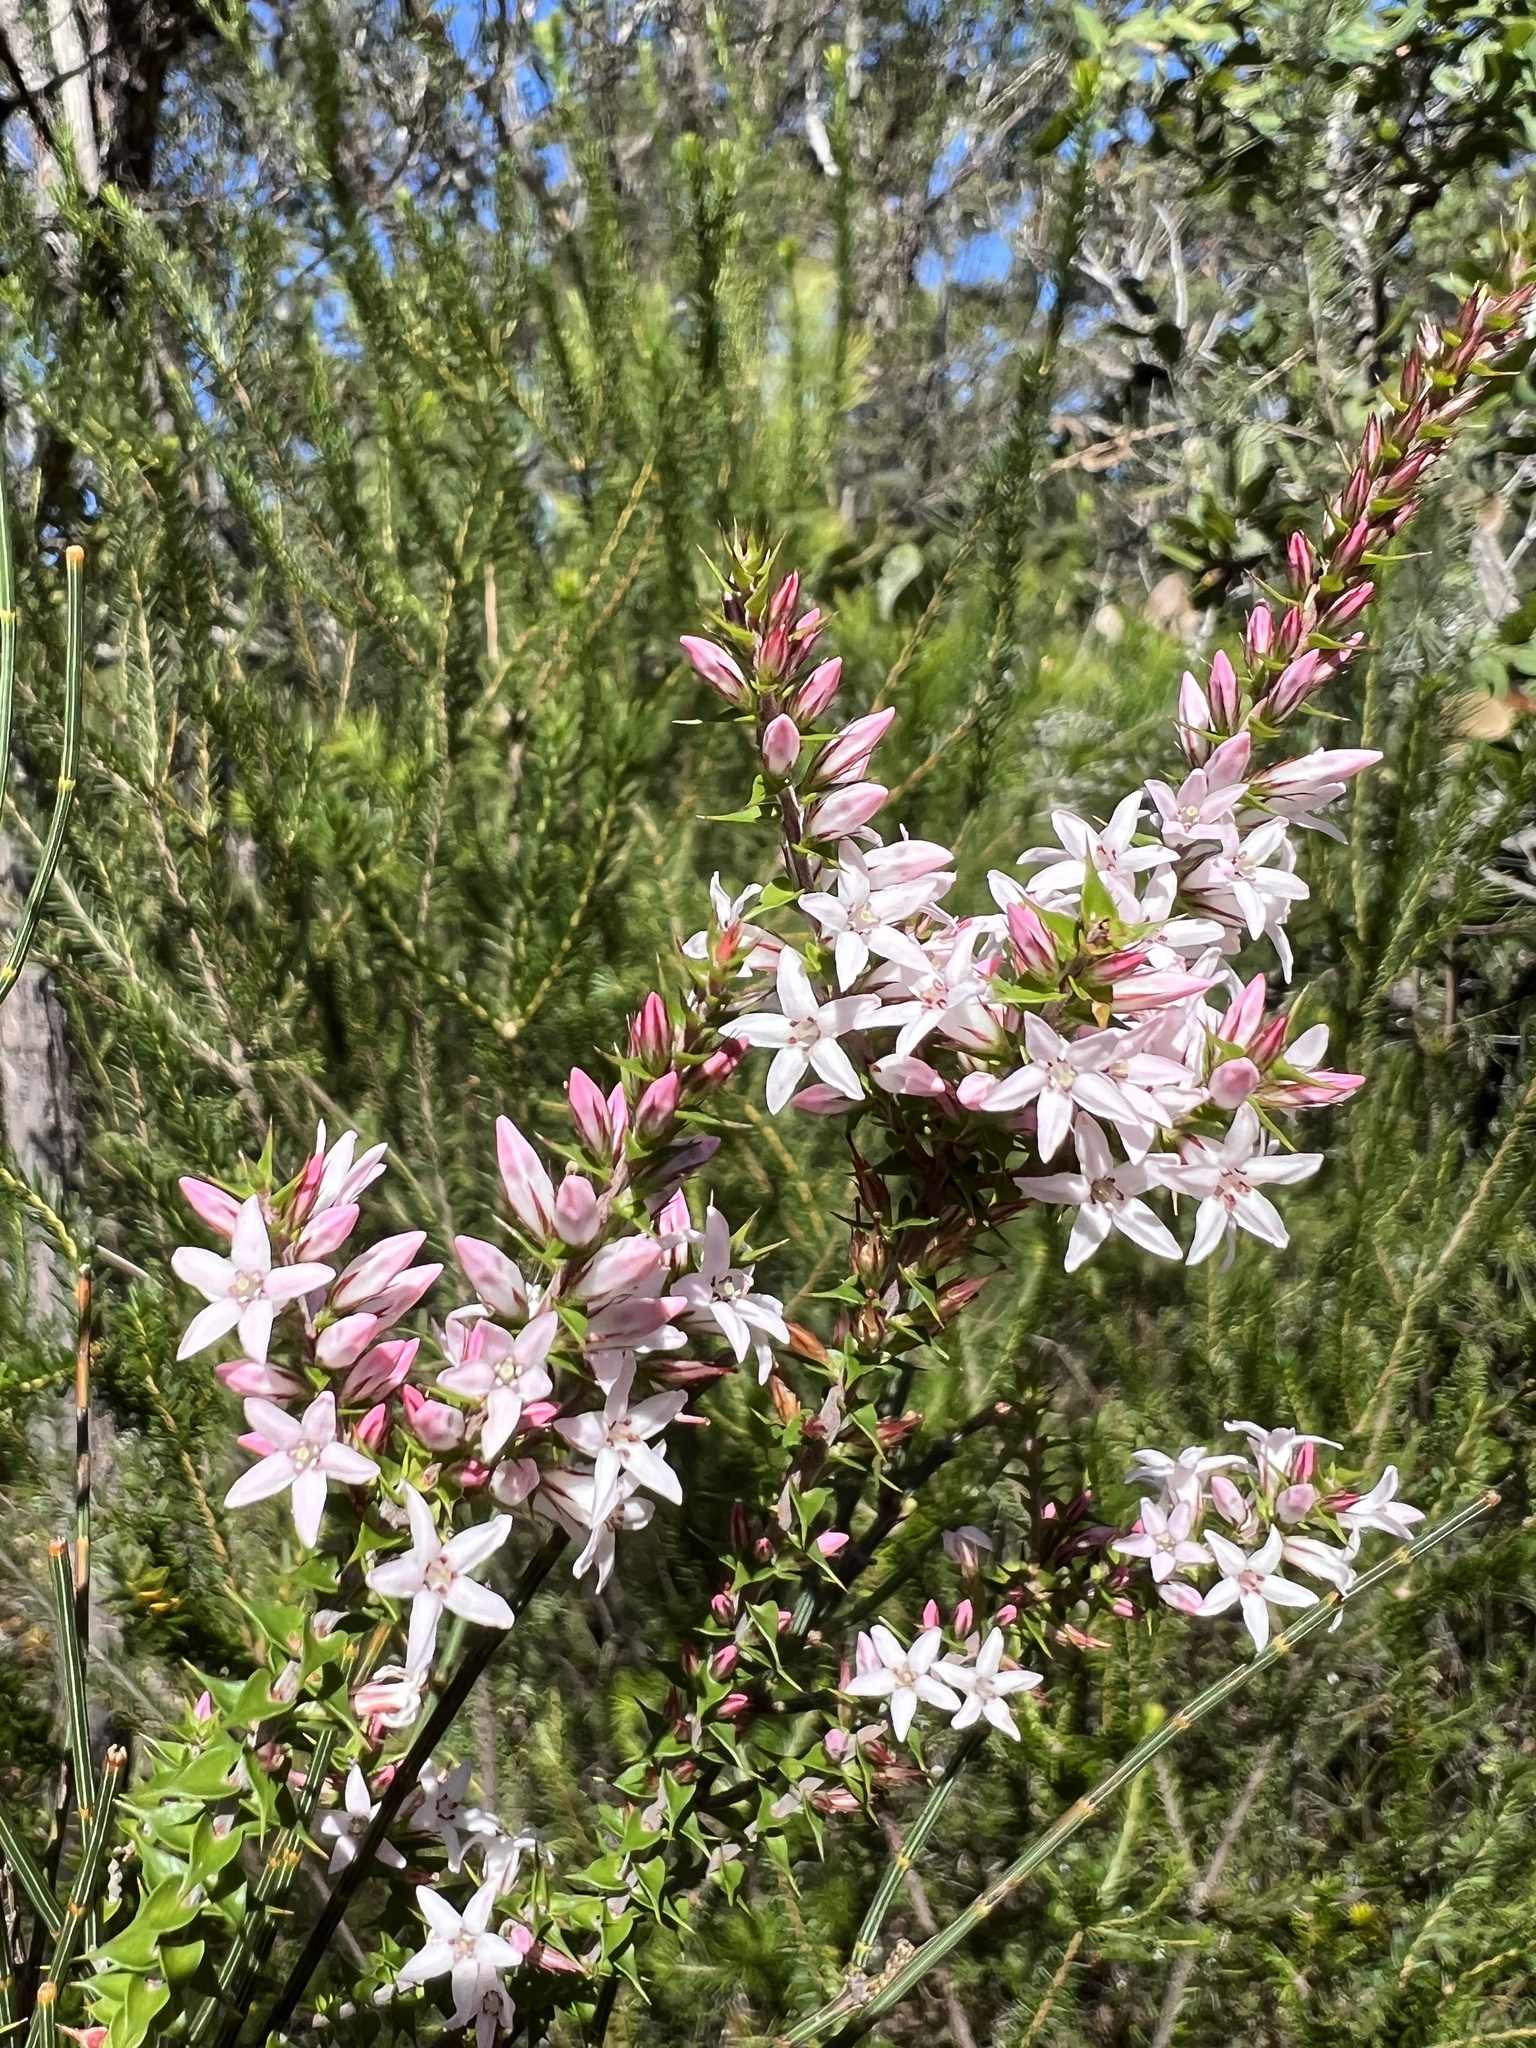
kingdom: Plantae
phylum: Tracheophyta
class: Magnoliopsida
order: Ericales
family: Ericaceae
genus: Epacris
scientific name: Epacris pulchella
